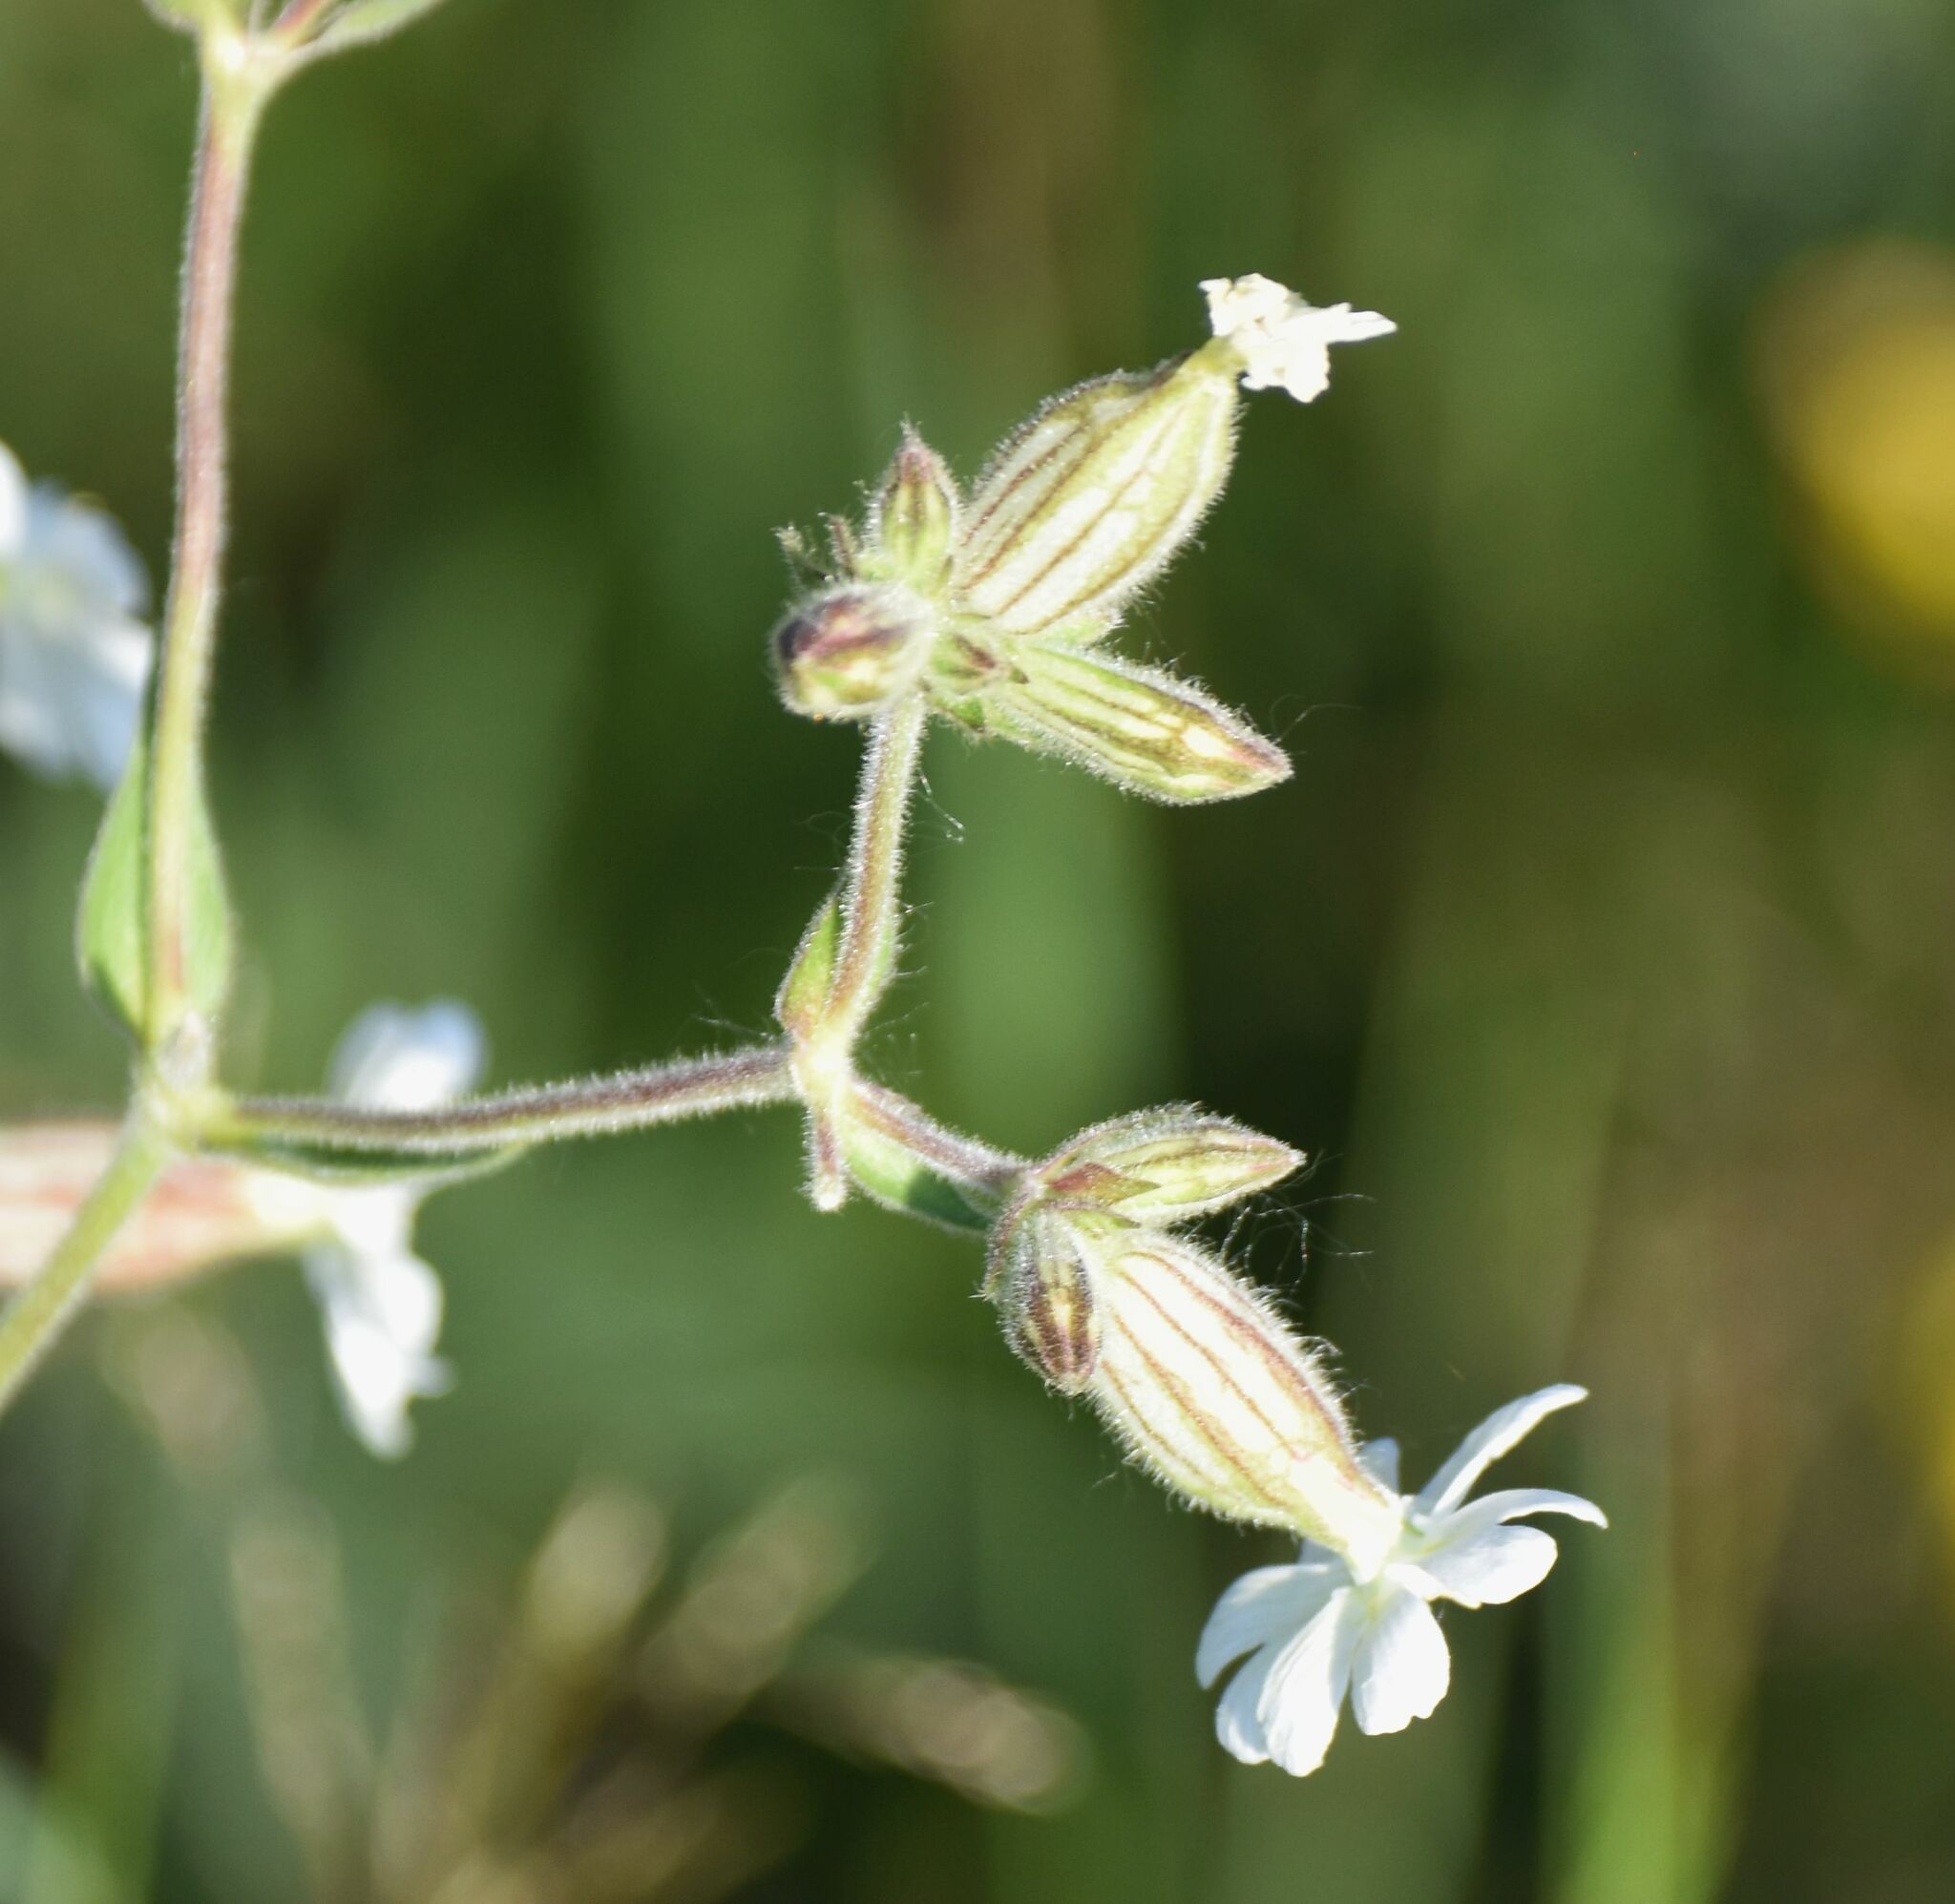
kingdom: Plantae
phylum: Tracheophyta
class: Magnoliopsida
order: Caryophyllales
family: Caryophyllaceae
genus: Silene
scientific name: Silene latifolia
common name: White campion
